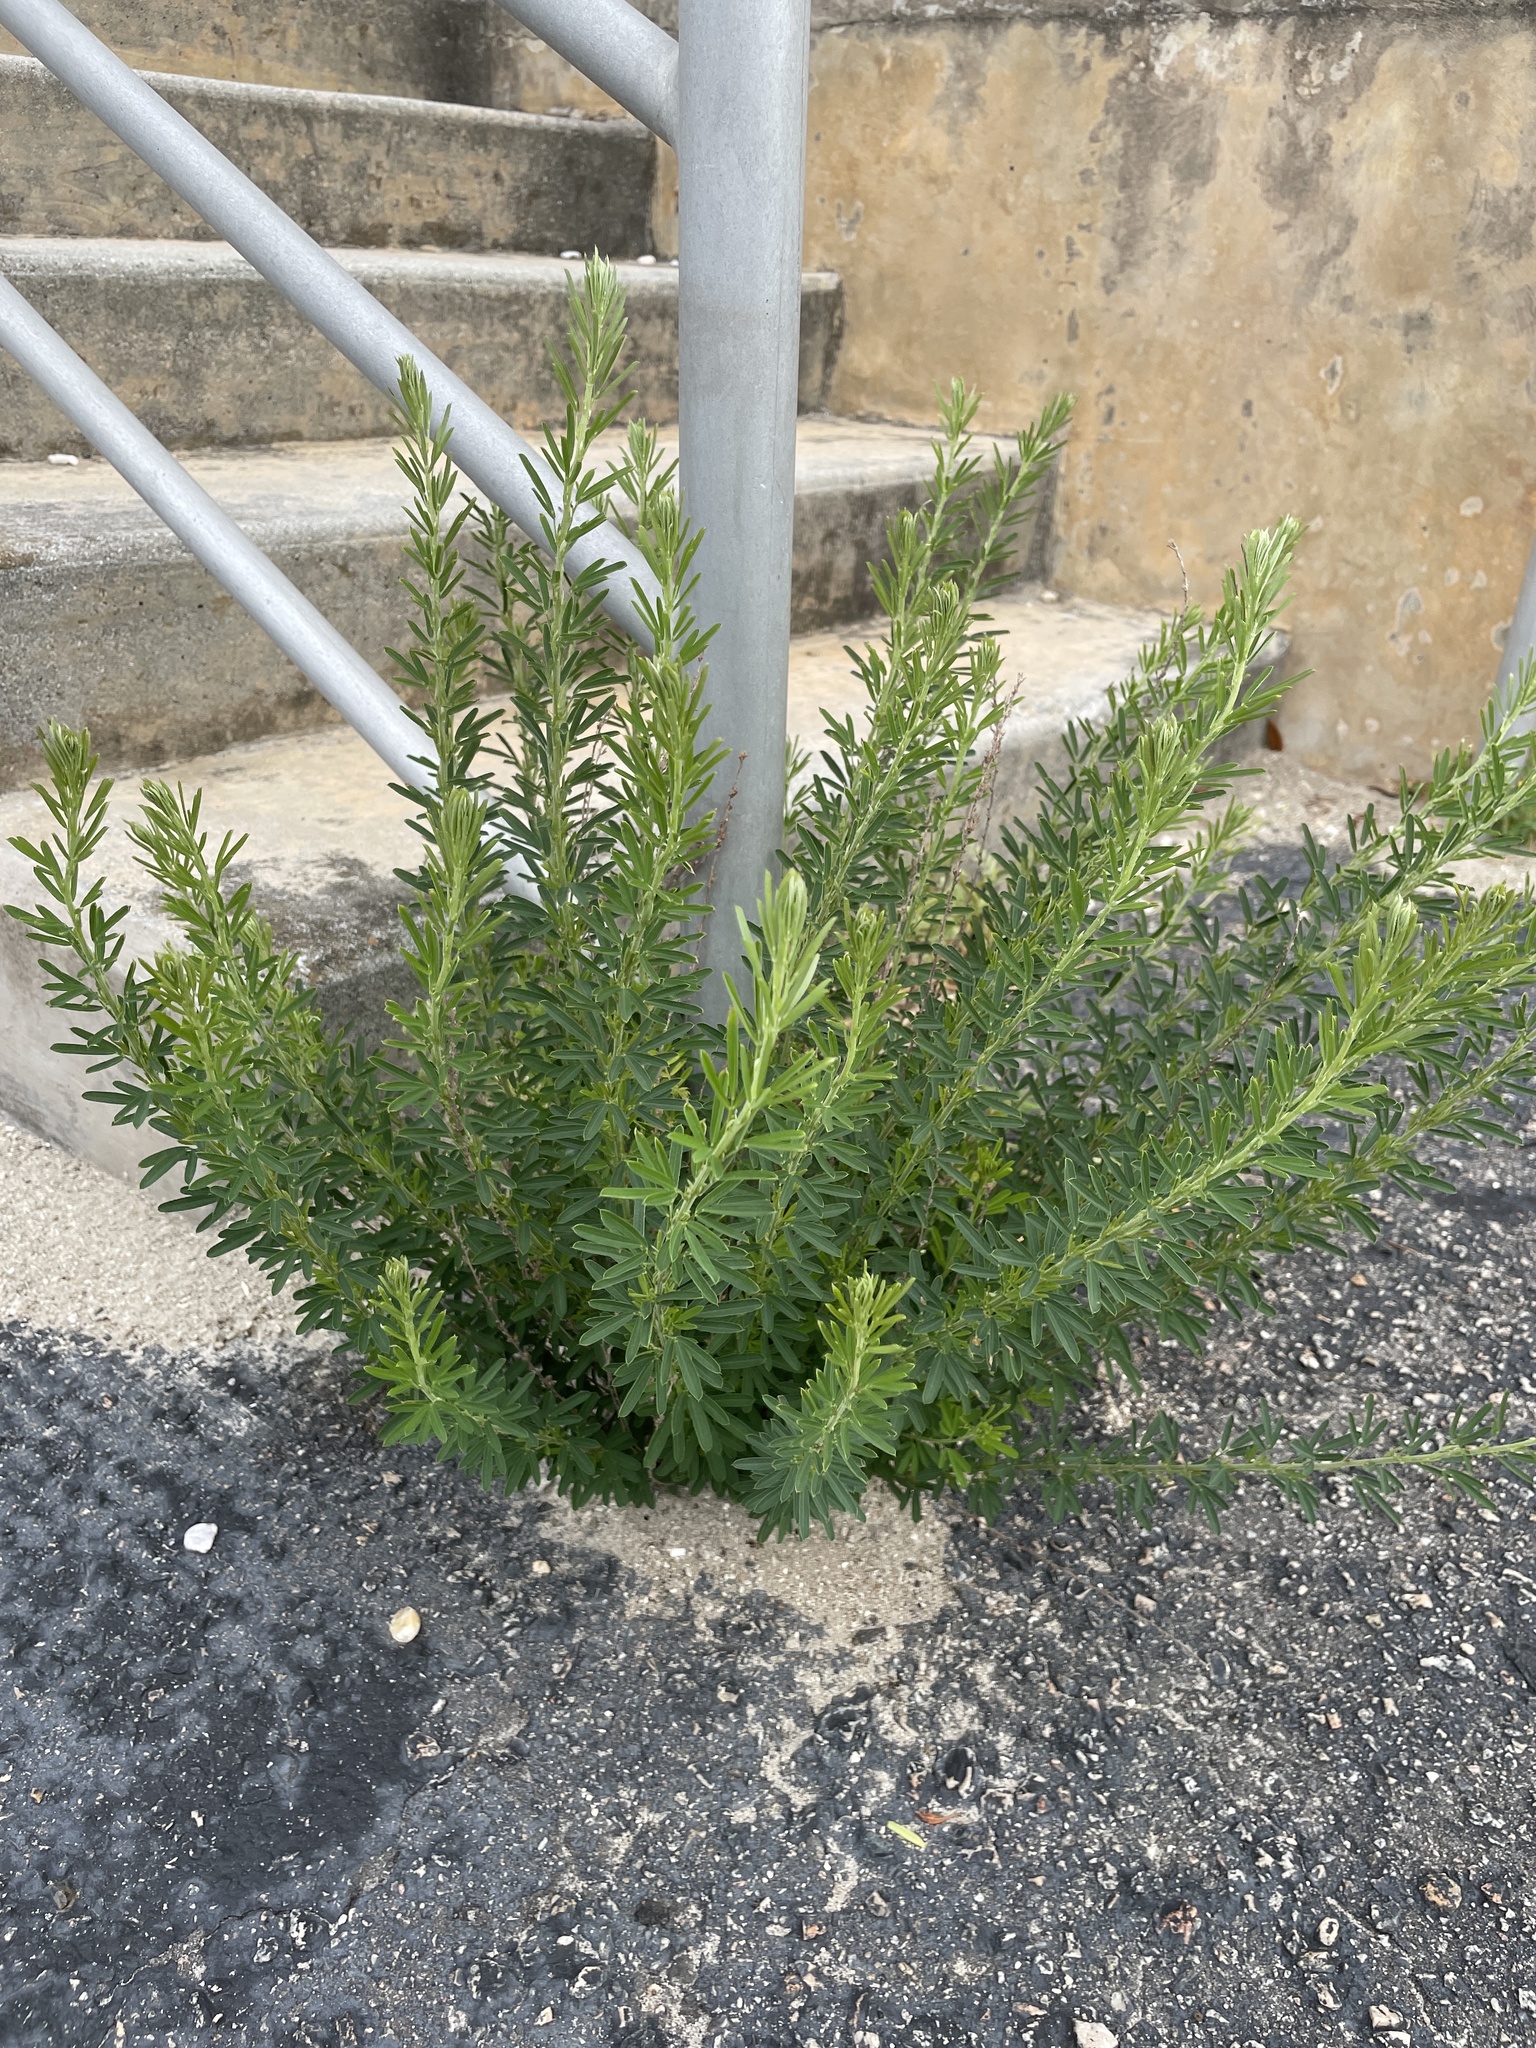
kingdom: Plantae
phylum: Tracheophyta
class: Magnoliopsida
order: Fabales
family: Fabaceae
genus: Lespedeza
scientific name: Lespedeza cuneata
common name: Chinese bush-clover
